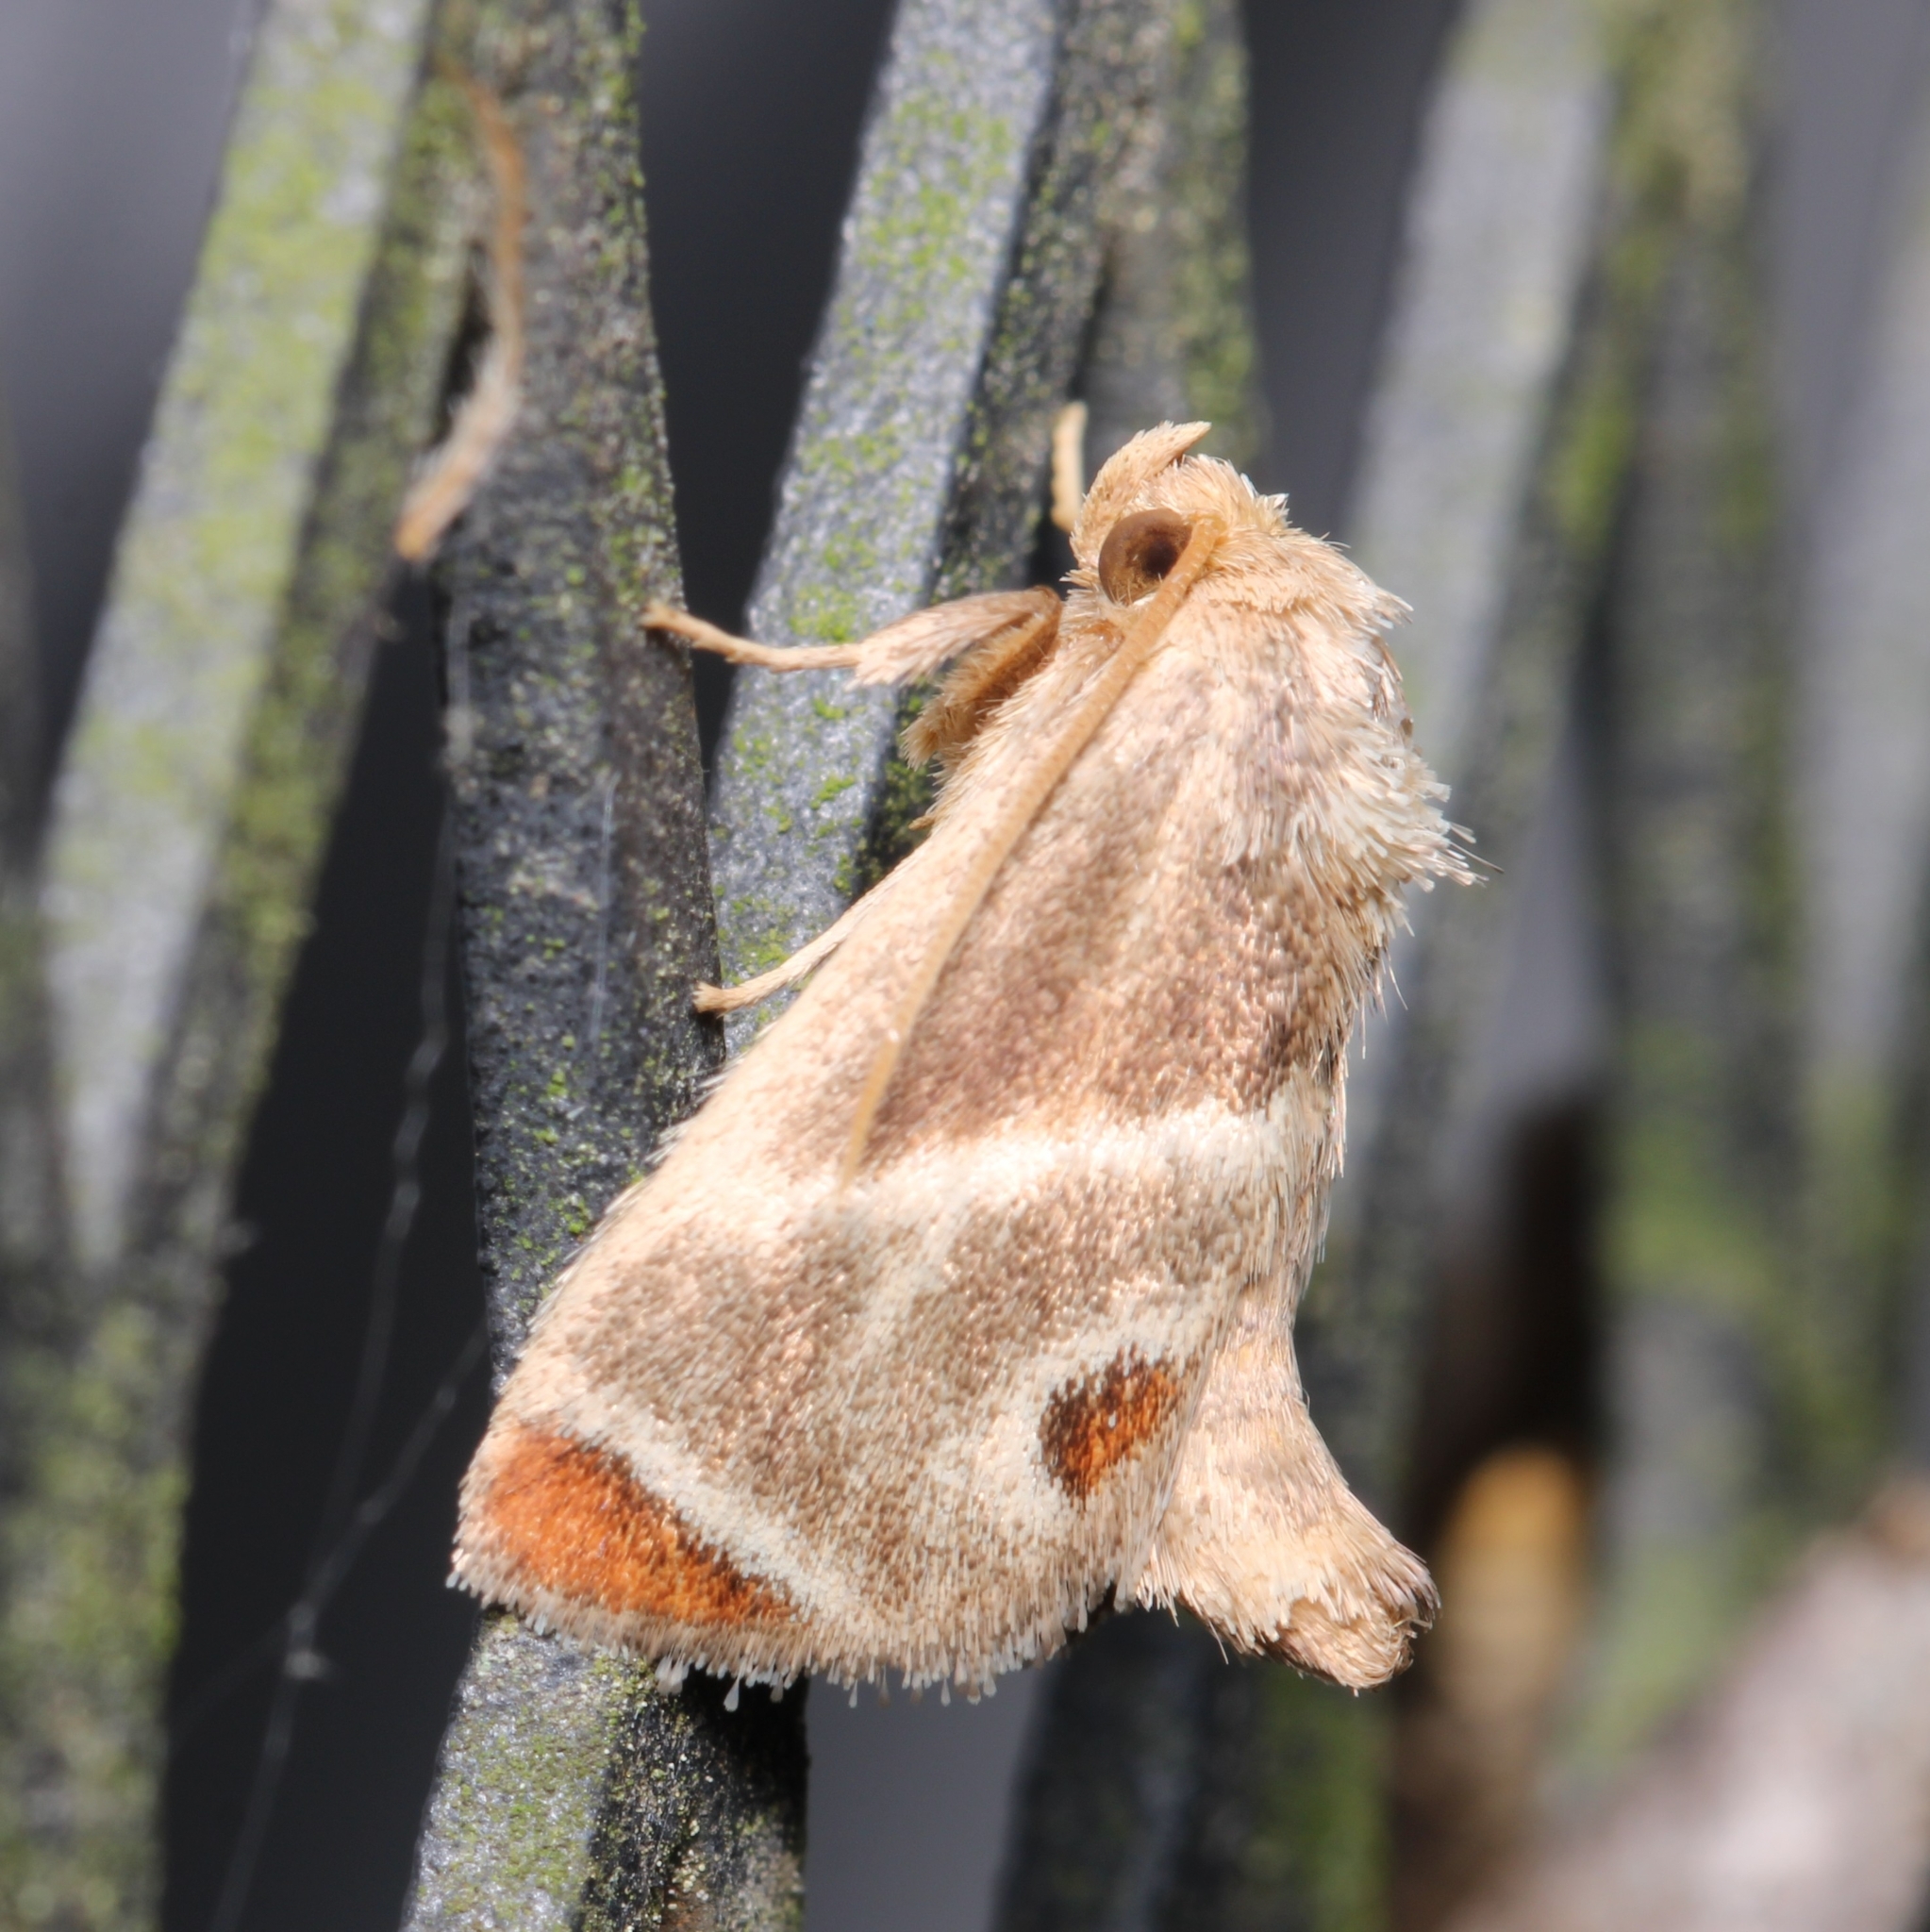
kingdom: Animalia
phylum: Arthropoda
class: Insecta
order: Lepidoptera
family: Limacodidae
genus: Apoda
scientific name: Apoda biguttata
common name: Shagreened slug moth
